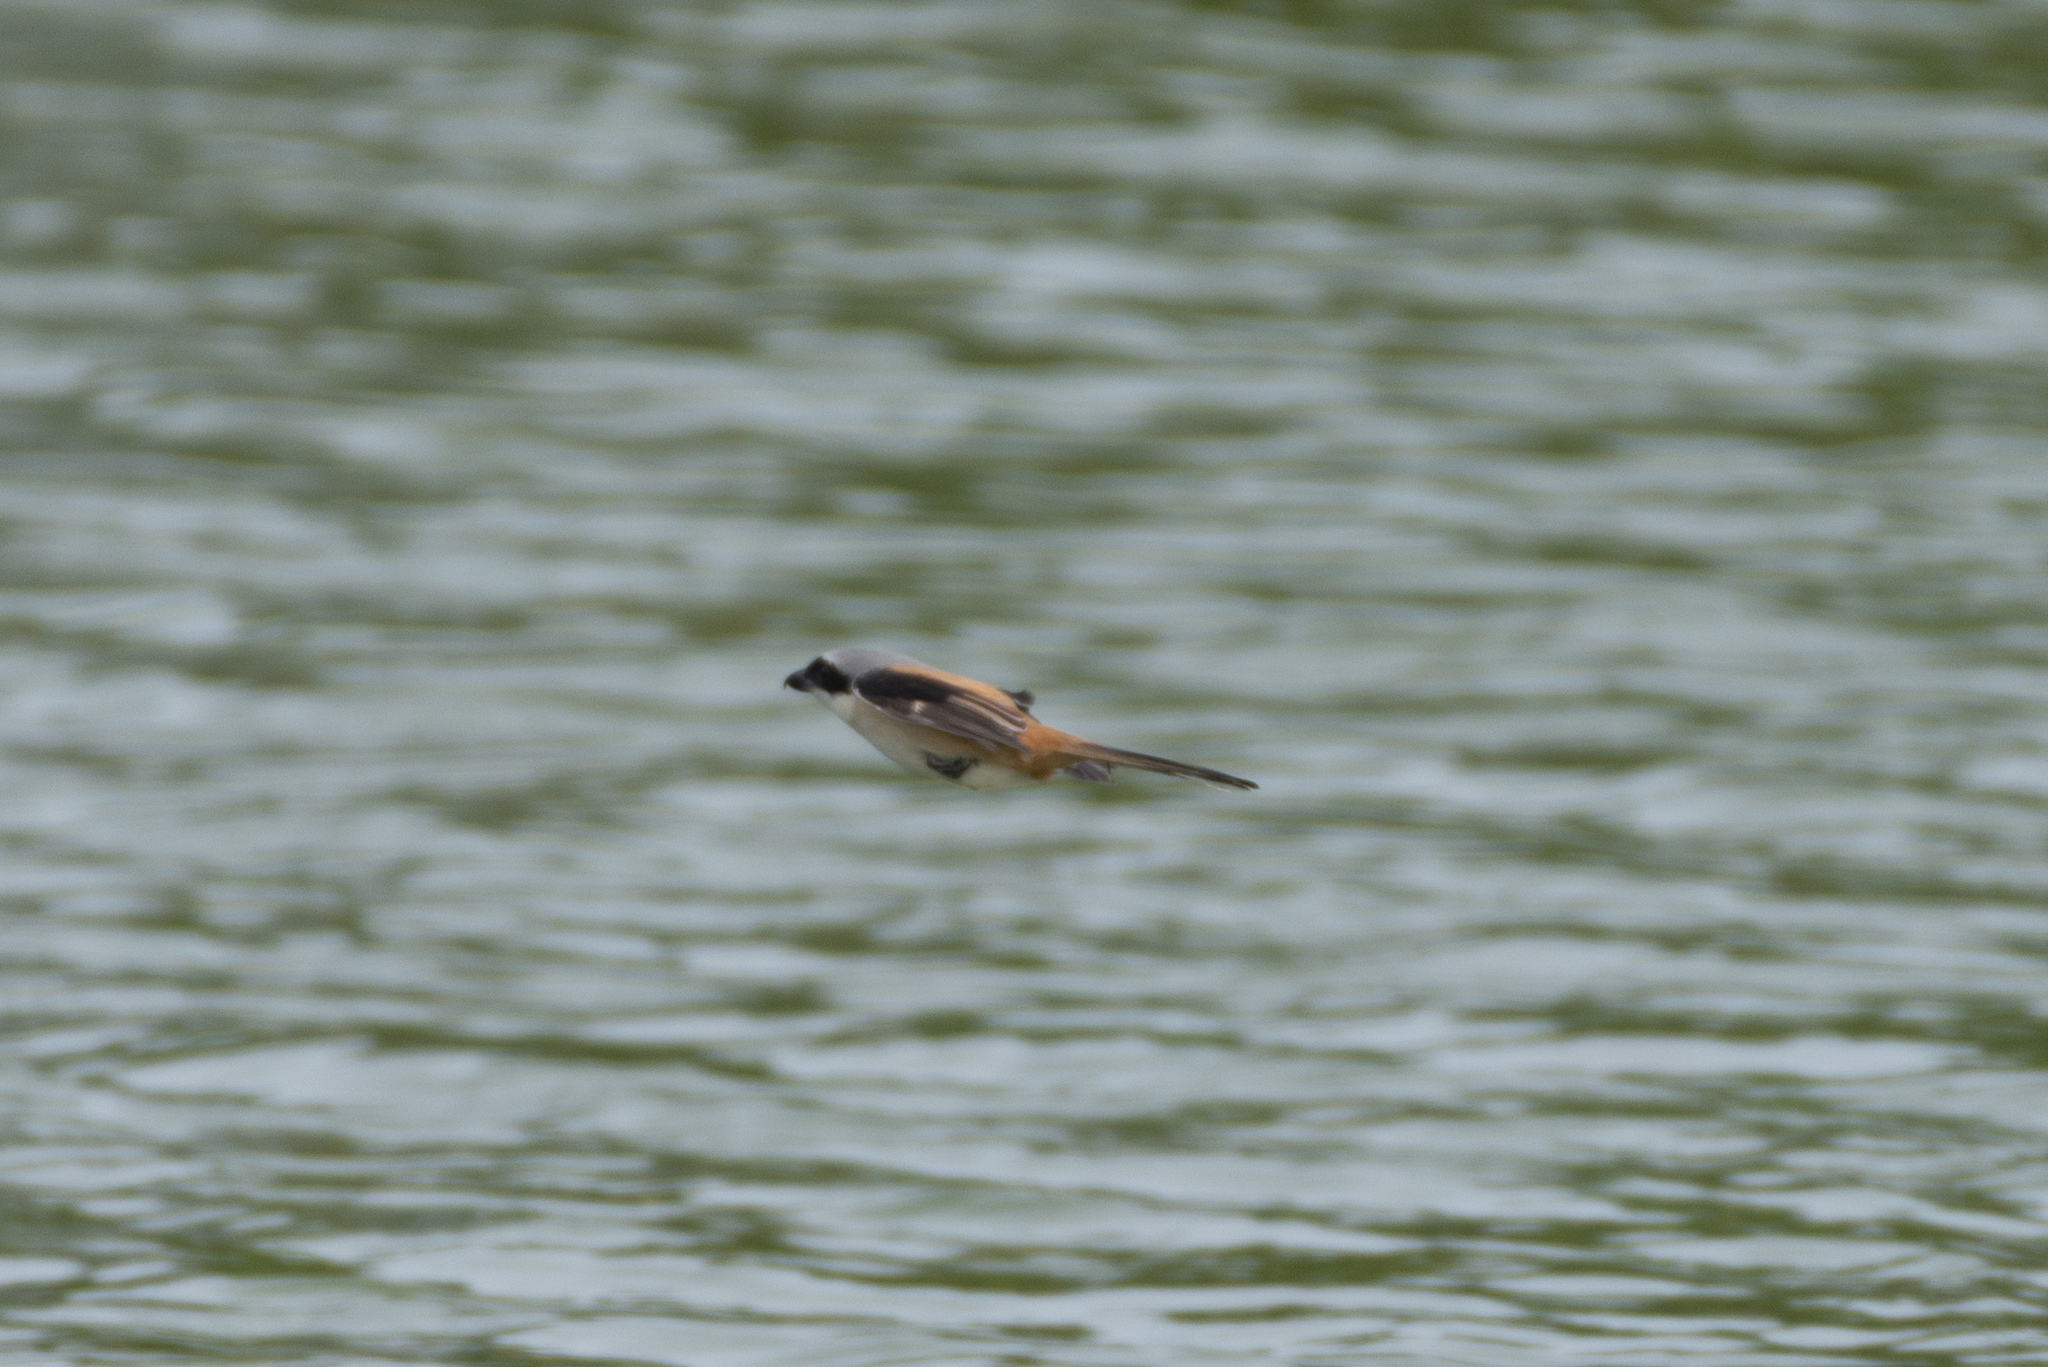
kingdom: Animalia
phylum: Chordata
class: Aves
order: Passeriformes
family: Laniidae
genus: Lanius
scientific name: Lanius schach
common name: Long-tailed shrike
